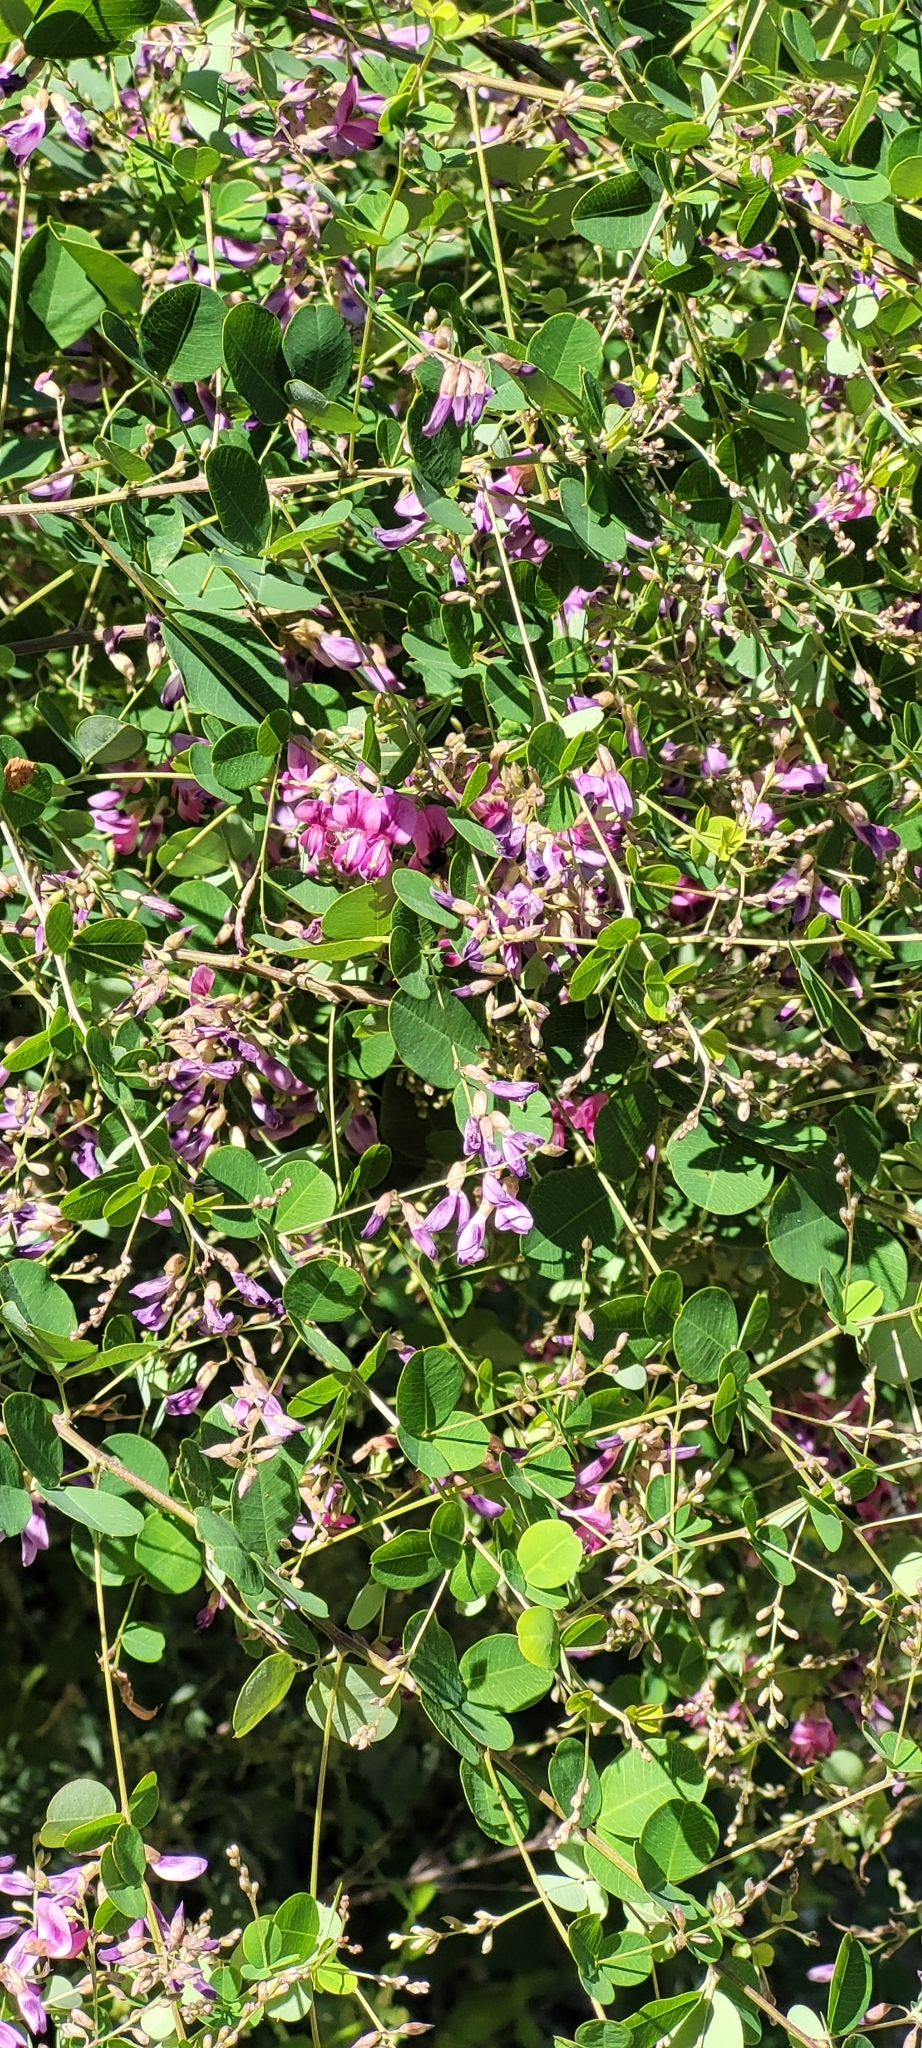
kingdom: Plantae
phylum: Tracheophyta
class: Magnoliopsida
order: Fabales
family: Fabaceae
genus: Lespedeza
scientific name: Lespedeza bicolor
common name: Shrub lespedeza
